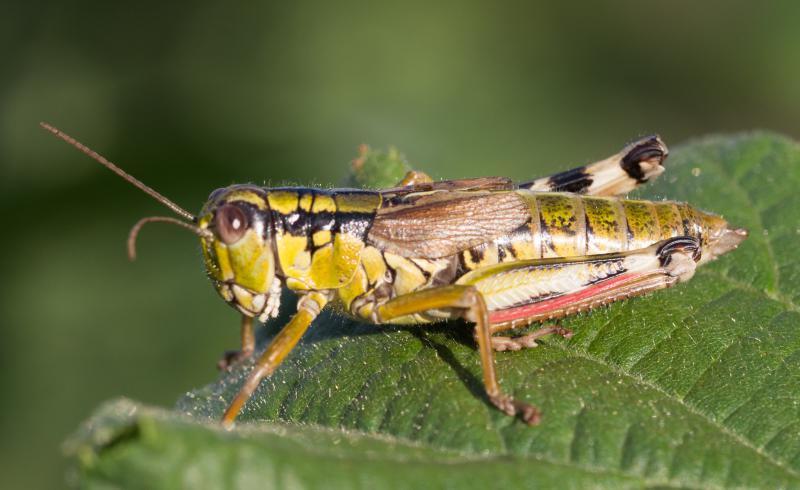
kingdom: Animalia
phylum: Arthropoda
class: Insecta
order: Orthoptera
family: Acrididae
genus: Miramella
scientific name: Miramella alpina
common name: Green mountain grasshopper
